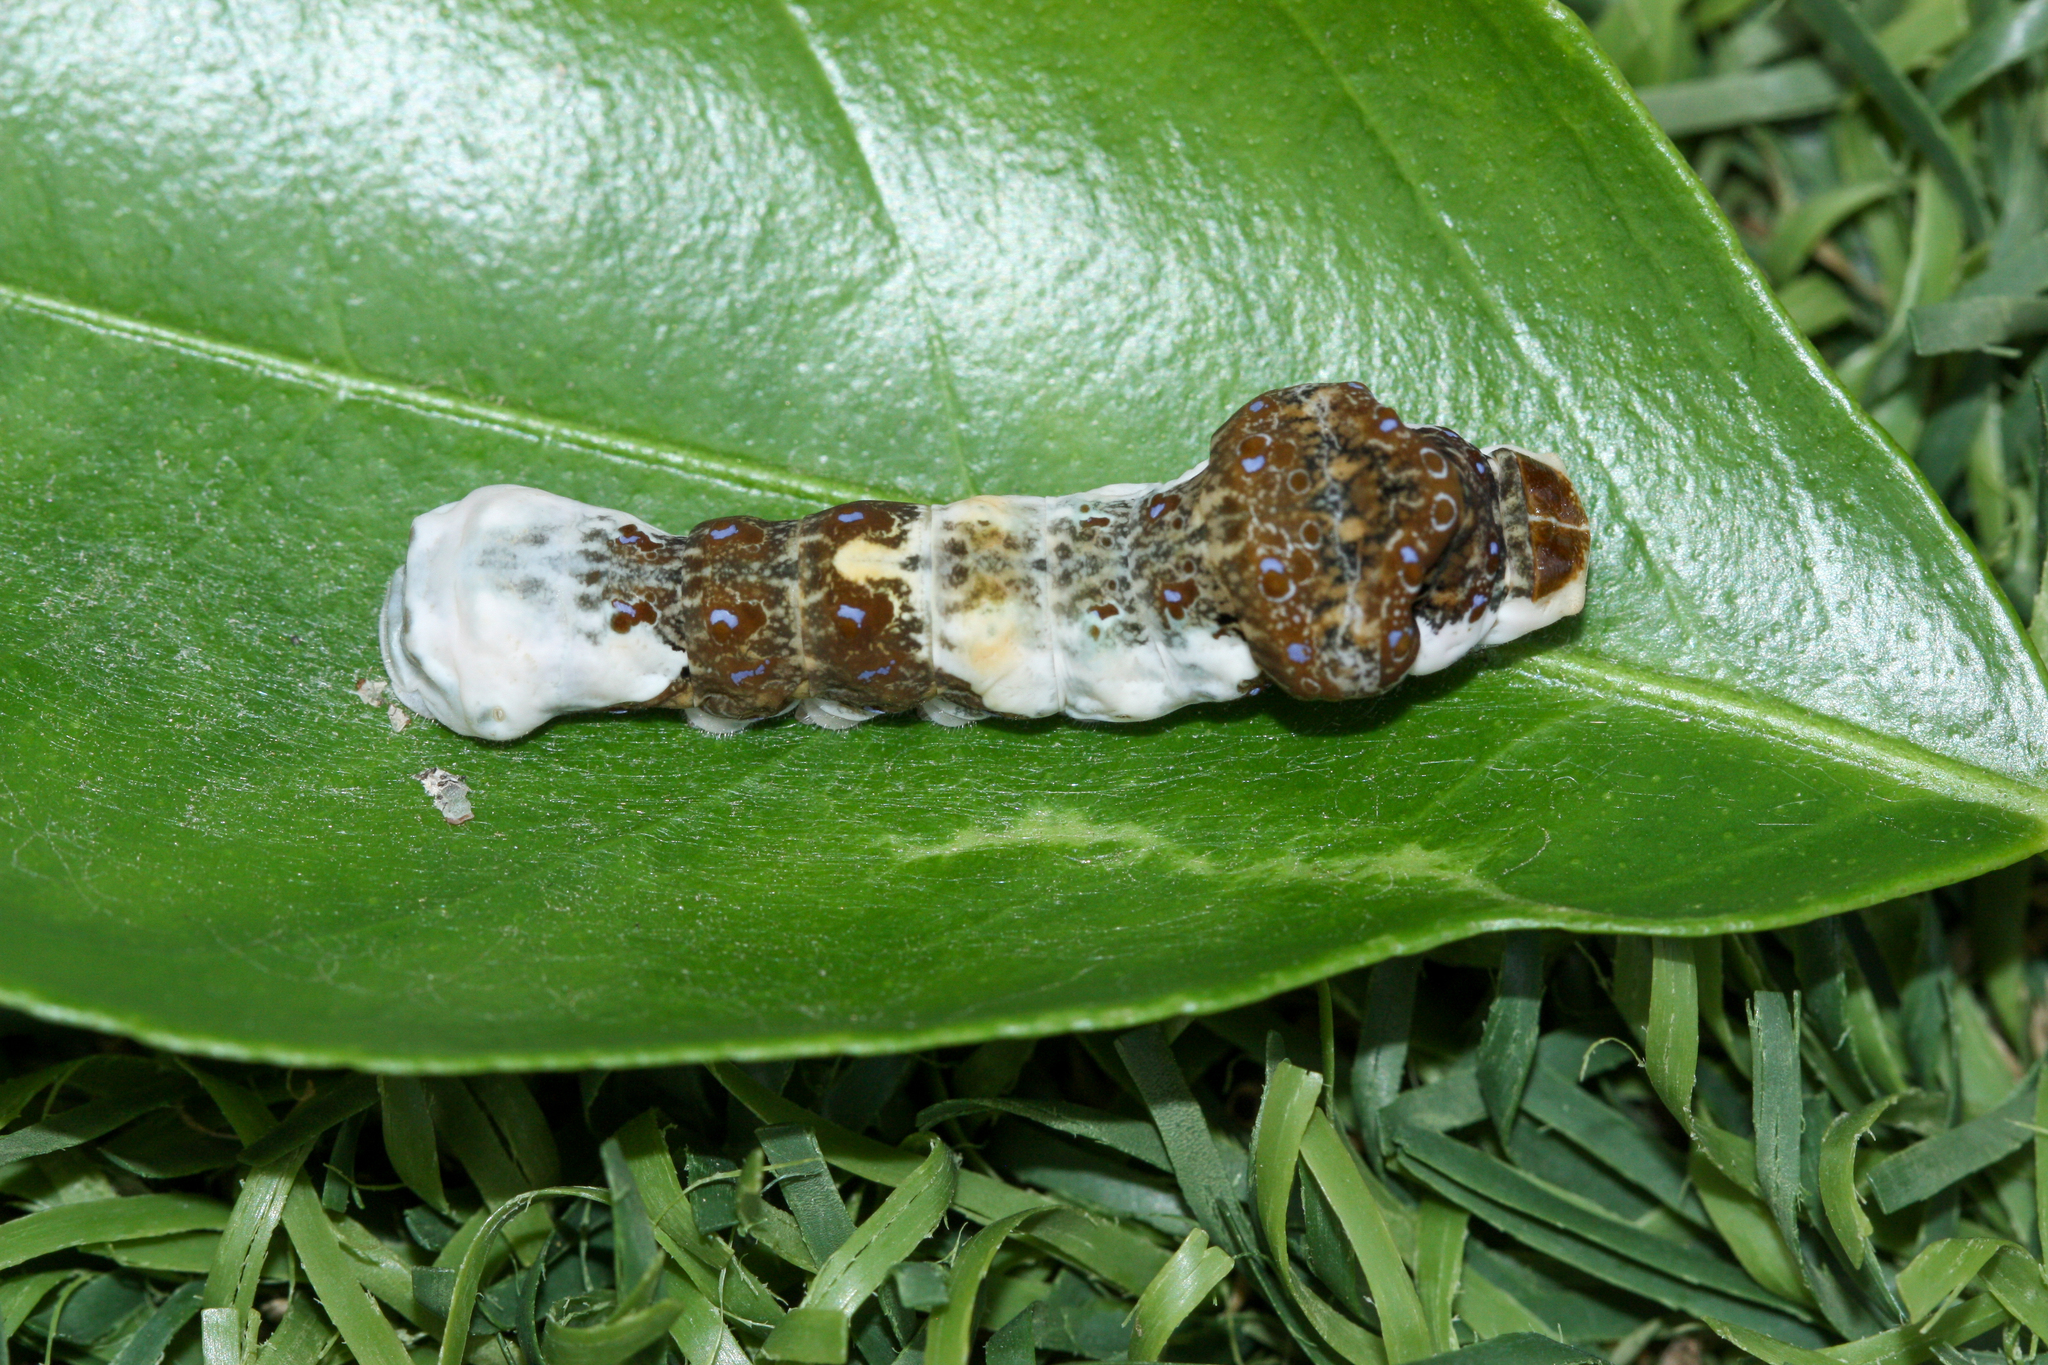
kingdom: Animalia
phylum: Arthropoda
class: Insecta
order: Lepidoptera
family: Papilionidae
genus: Papilio
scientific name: Papilio rumiko
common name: Western giant swallowtail
